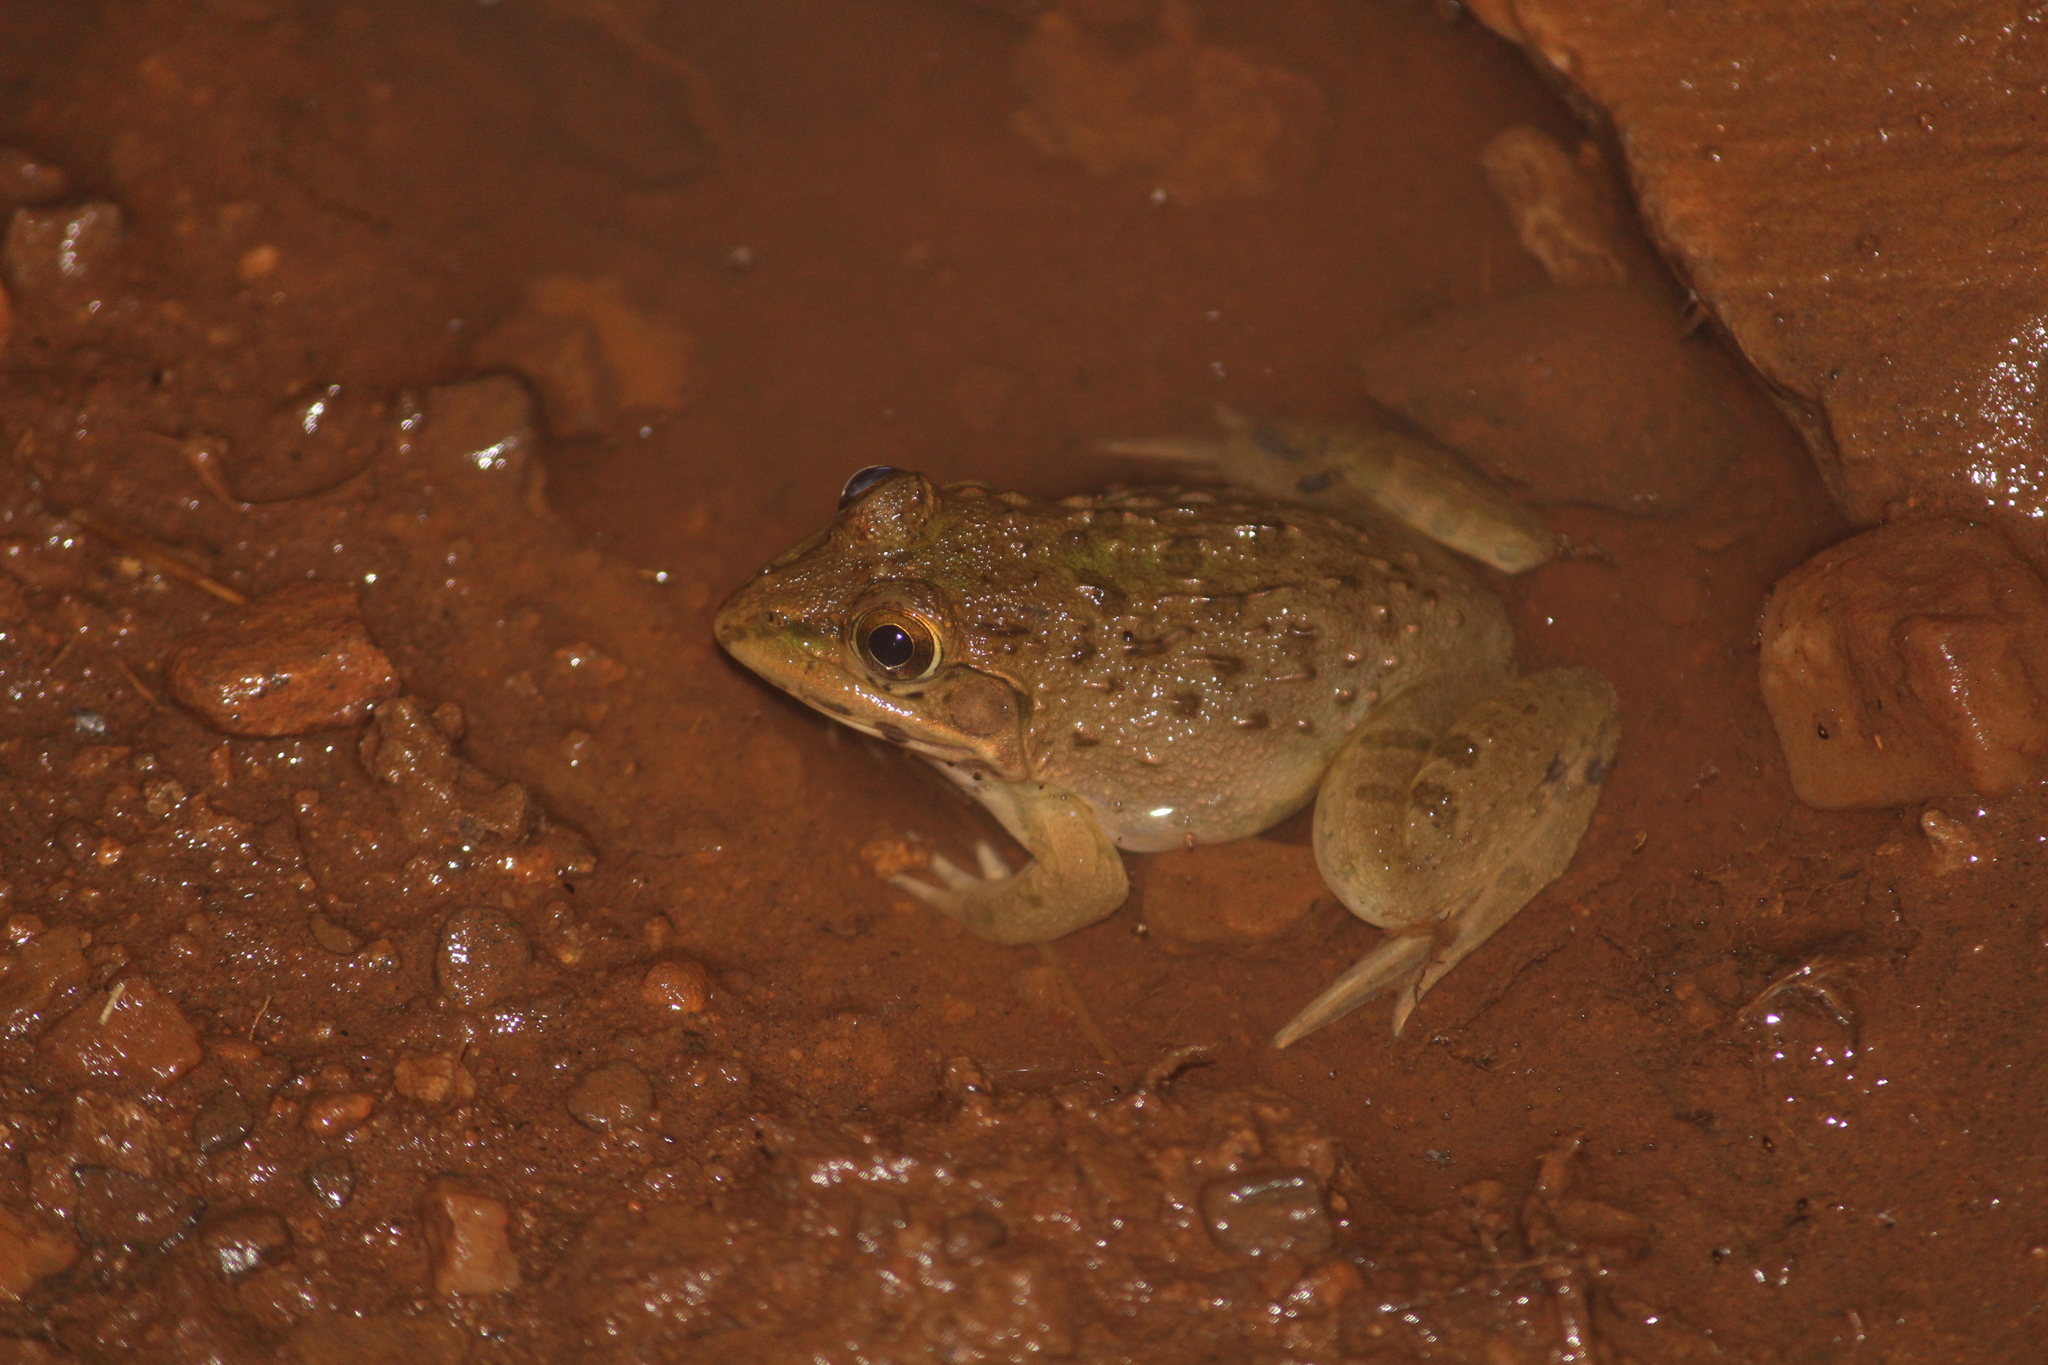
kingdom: Animalia
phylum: Chordata
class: Amphibia
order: Anura
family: Dicroglossidae
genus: Hoplobatrachus
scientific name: Hoplobatrachus tigerinus
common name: Indian bullfrog
